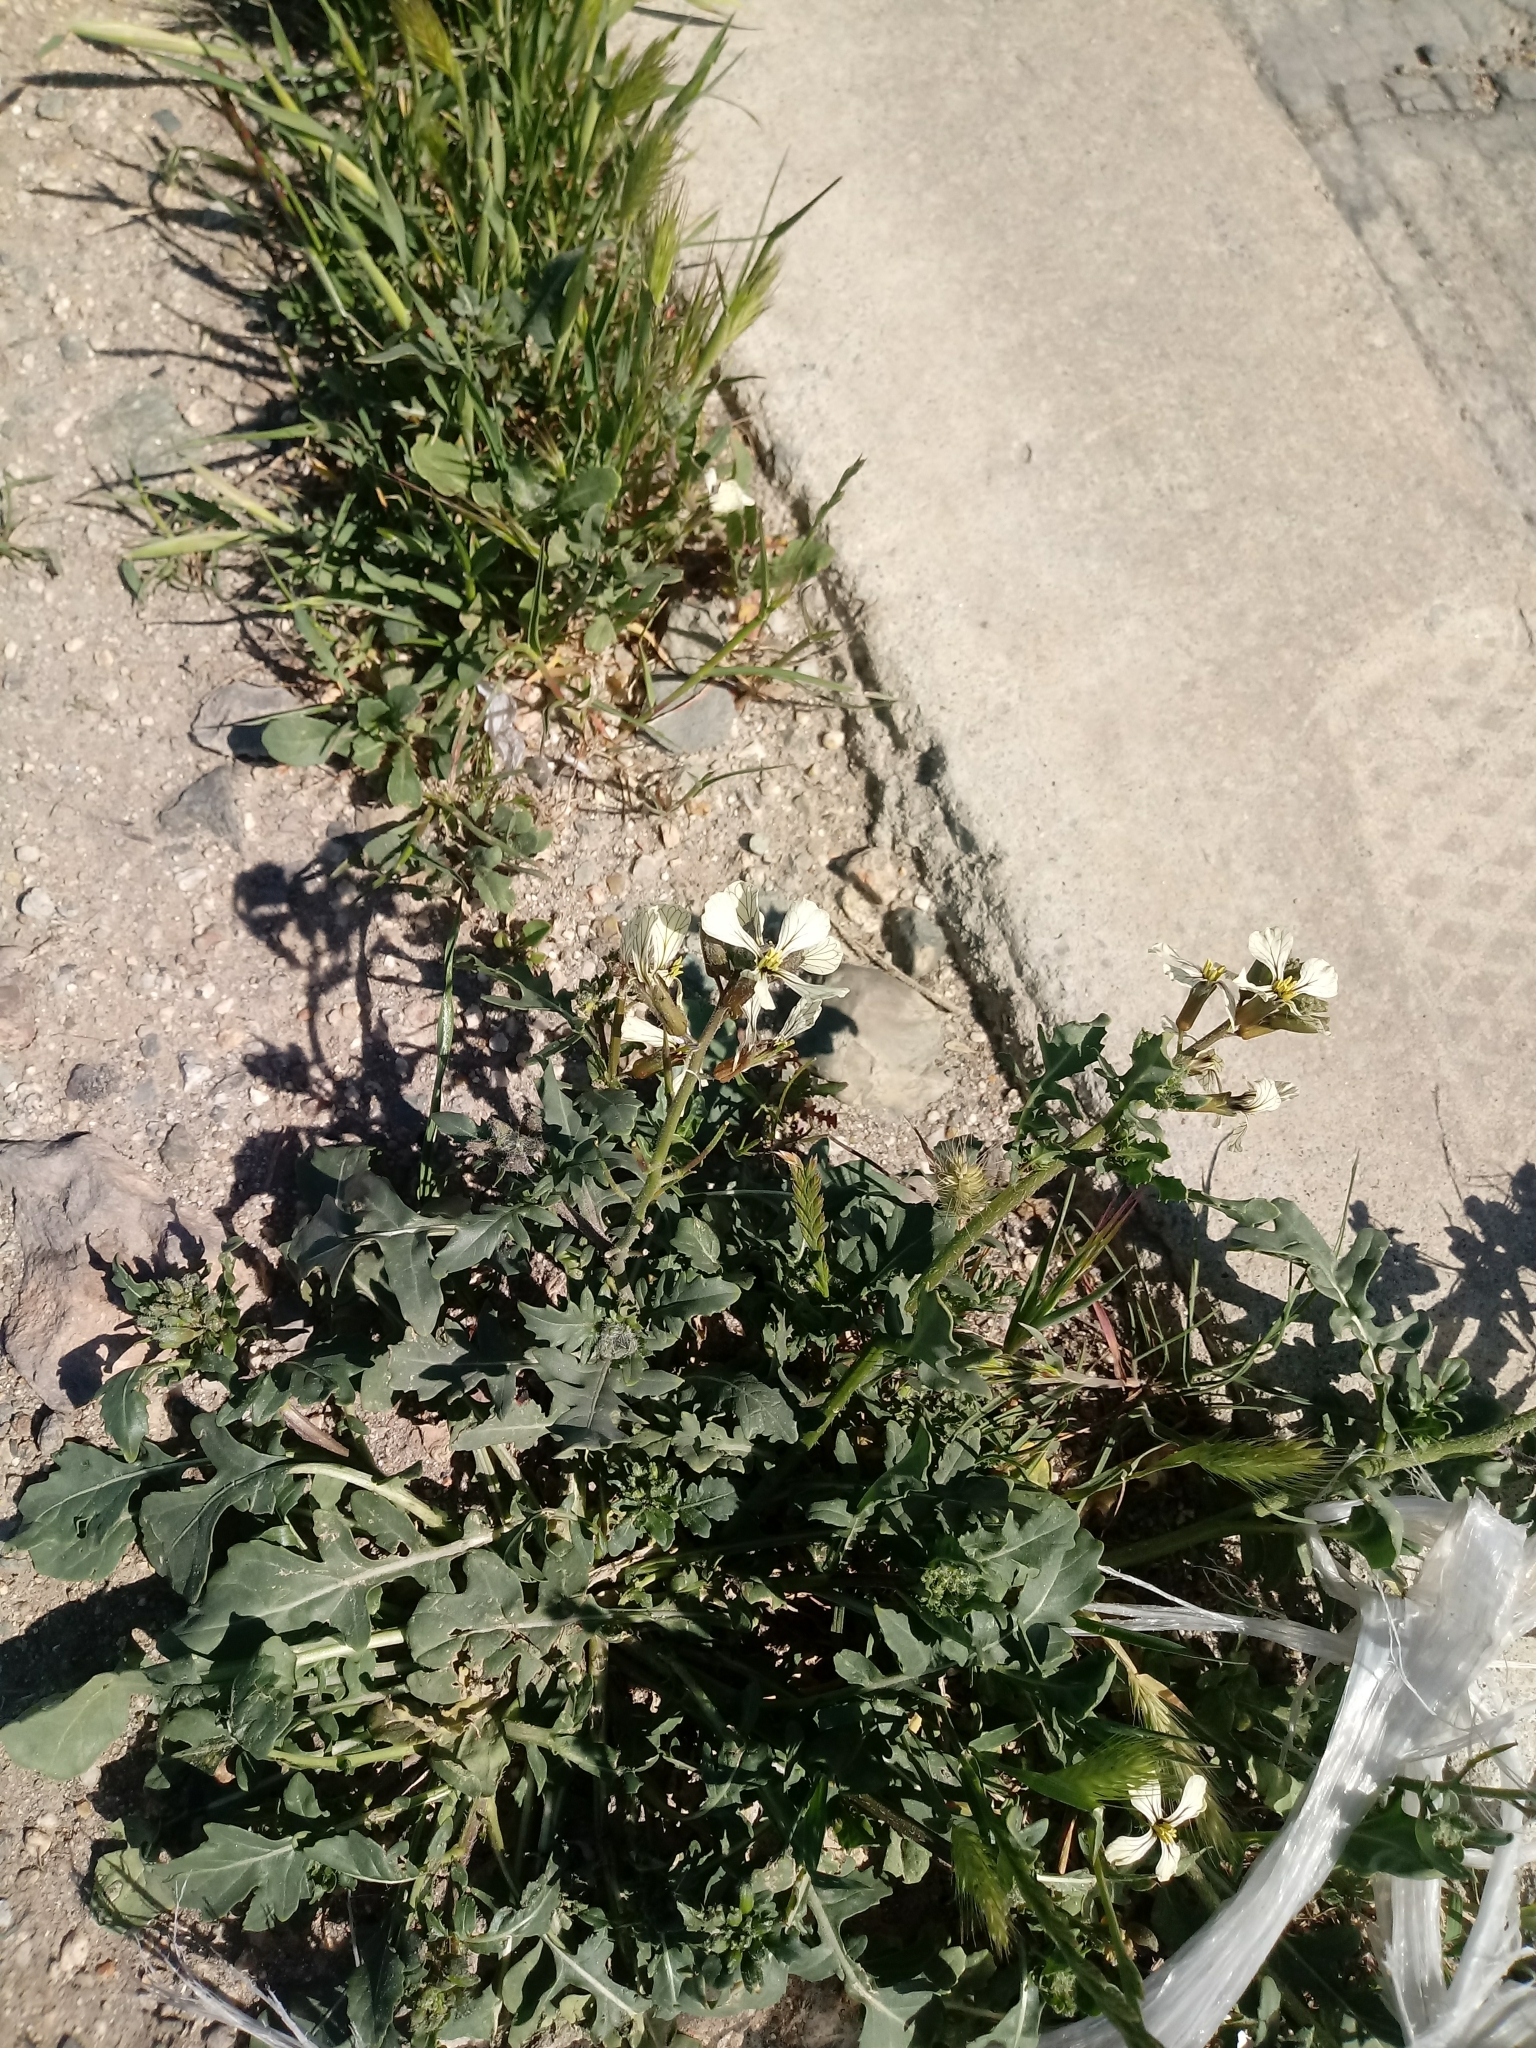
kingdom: Plantae
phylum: Tracheophyta
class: Magnoliopsida
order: Brassicales
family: Brassicaceae
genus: Eruca
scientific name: Eruca vesicaria
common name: Garden rocket
